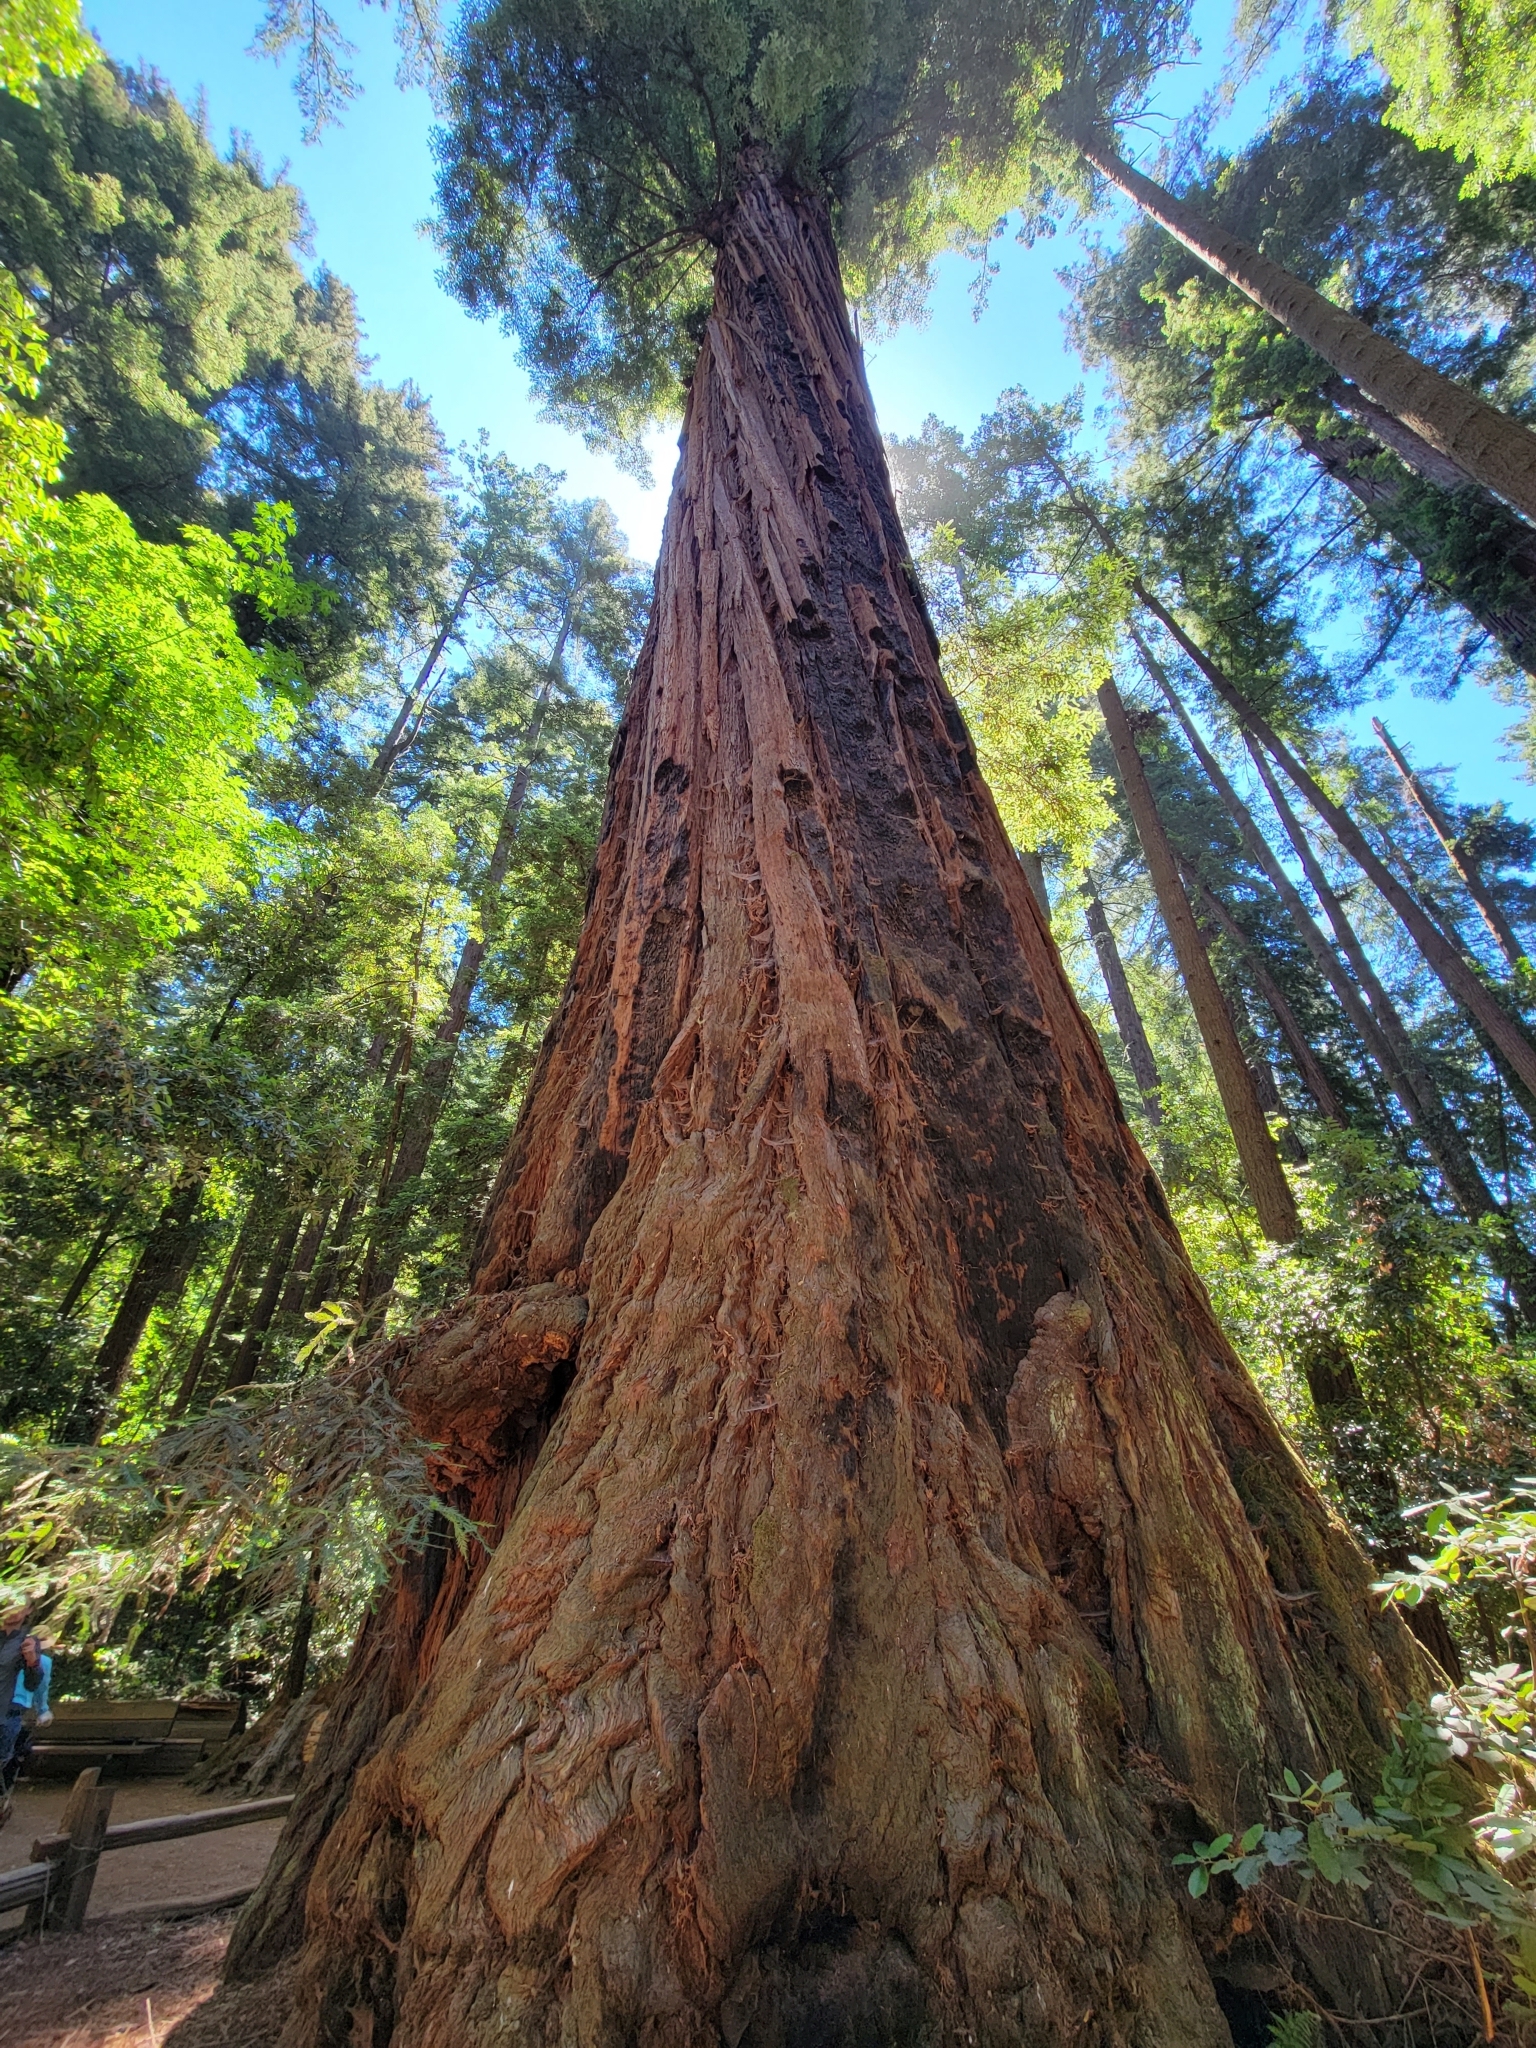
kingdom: Plantae
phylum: Tracheophyta
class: Pinopsida
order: Pinales
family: Cupressaceae
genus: Sequoia
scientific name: Sequoia sempervirens
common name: Coast redwood
